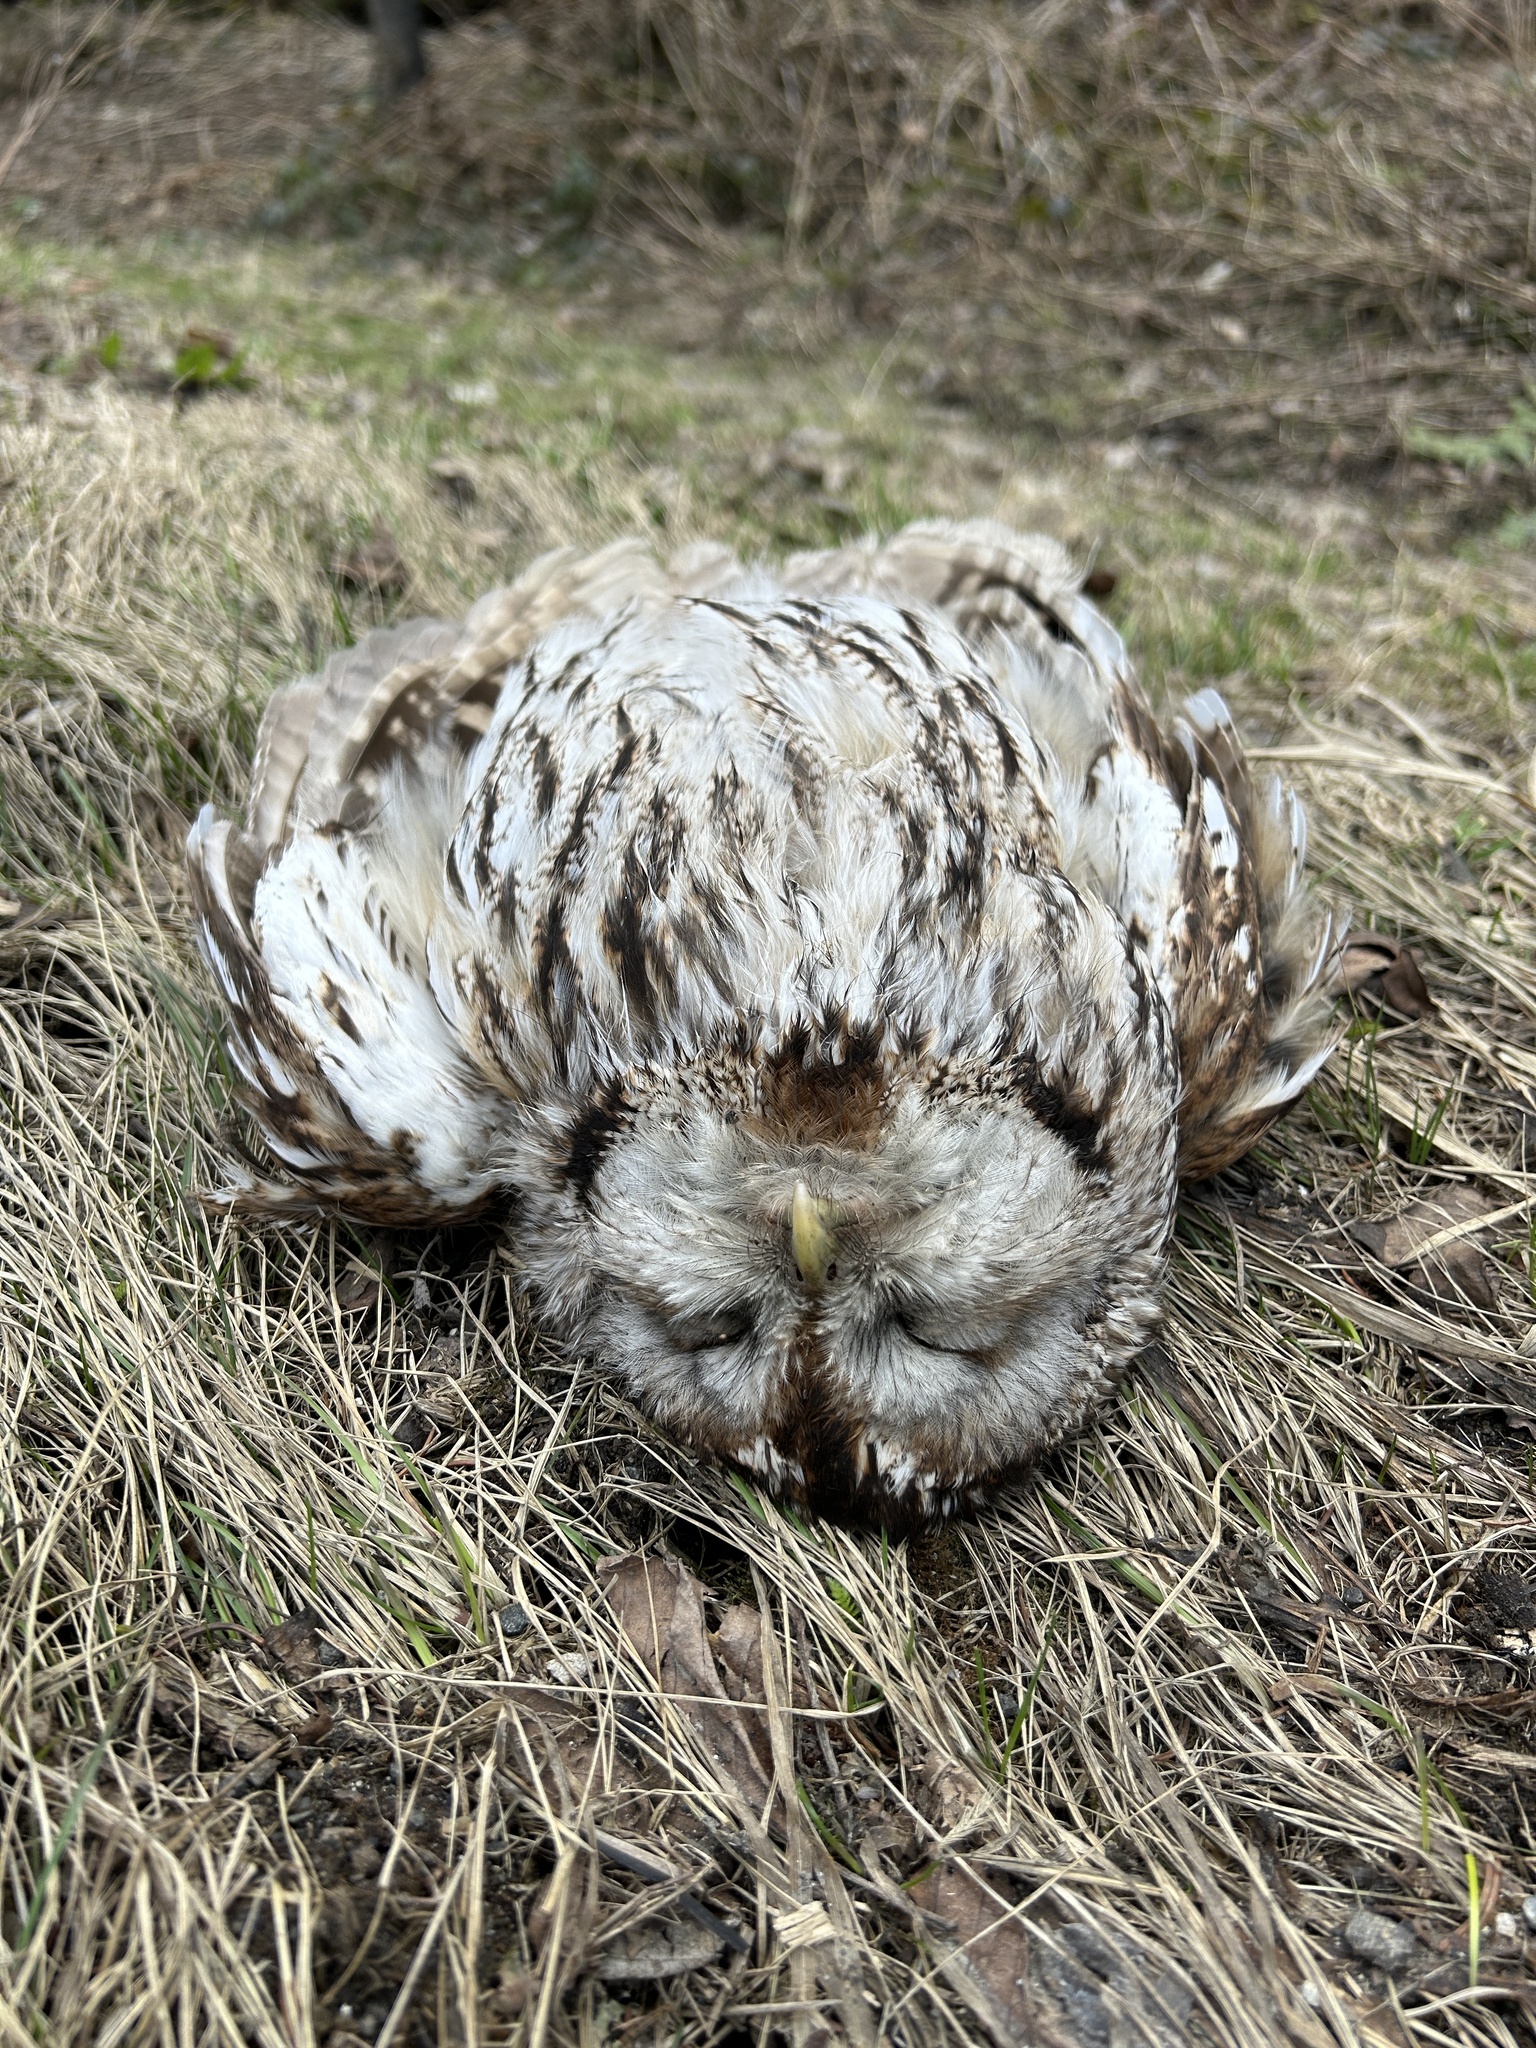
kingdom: Animalia
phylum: Chordata
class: Aves
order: Strigiformes
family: Strigidae
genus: Strix
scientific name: Strix aluco
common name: Tawny owl
